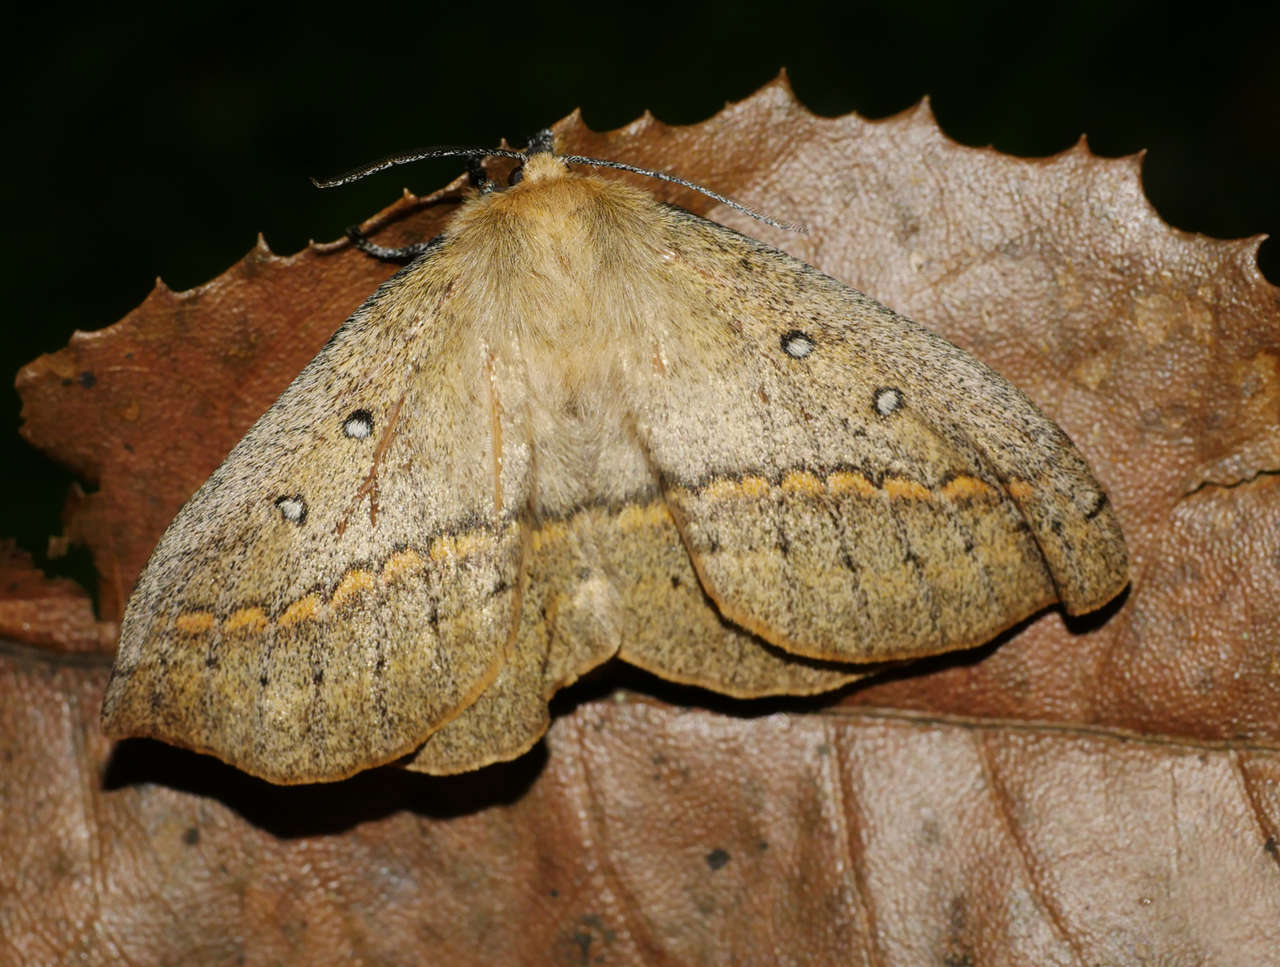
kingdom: Animalia
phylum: Arthropoda
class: Insecta
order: Lepidoptera
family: Anthelidae
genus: Anthela
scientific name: Anthela nicothoe
